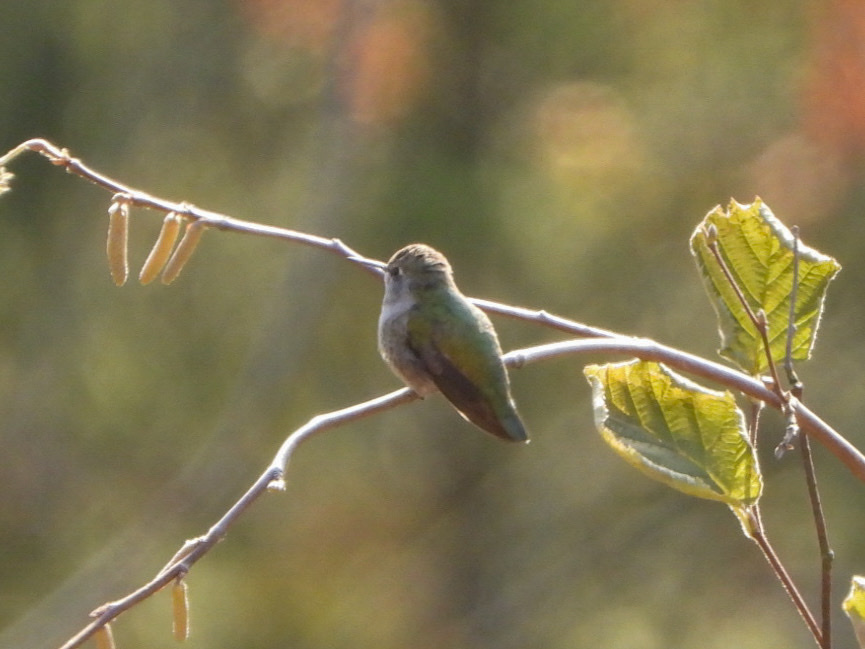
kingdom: Animalia
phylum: Chordata
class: Aves
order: Apodiformes
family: Trochilidae
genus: Calypte
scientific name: Calypte anna
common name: Anna's hummingbird
